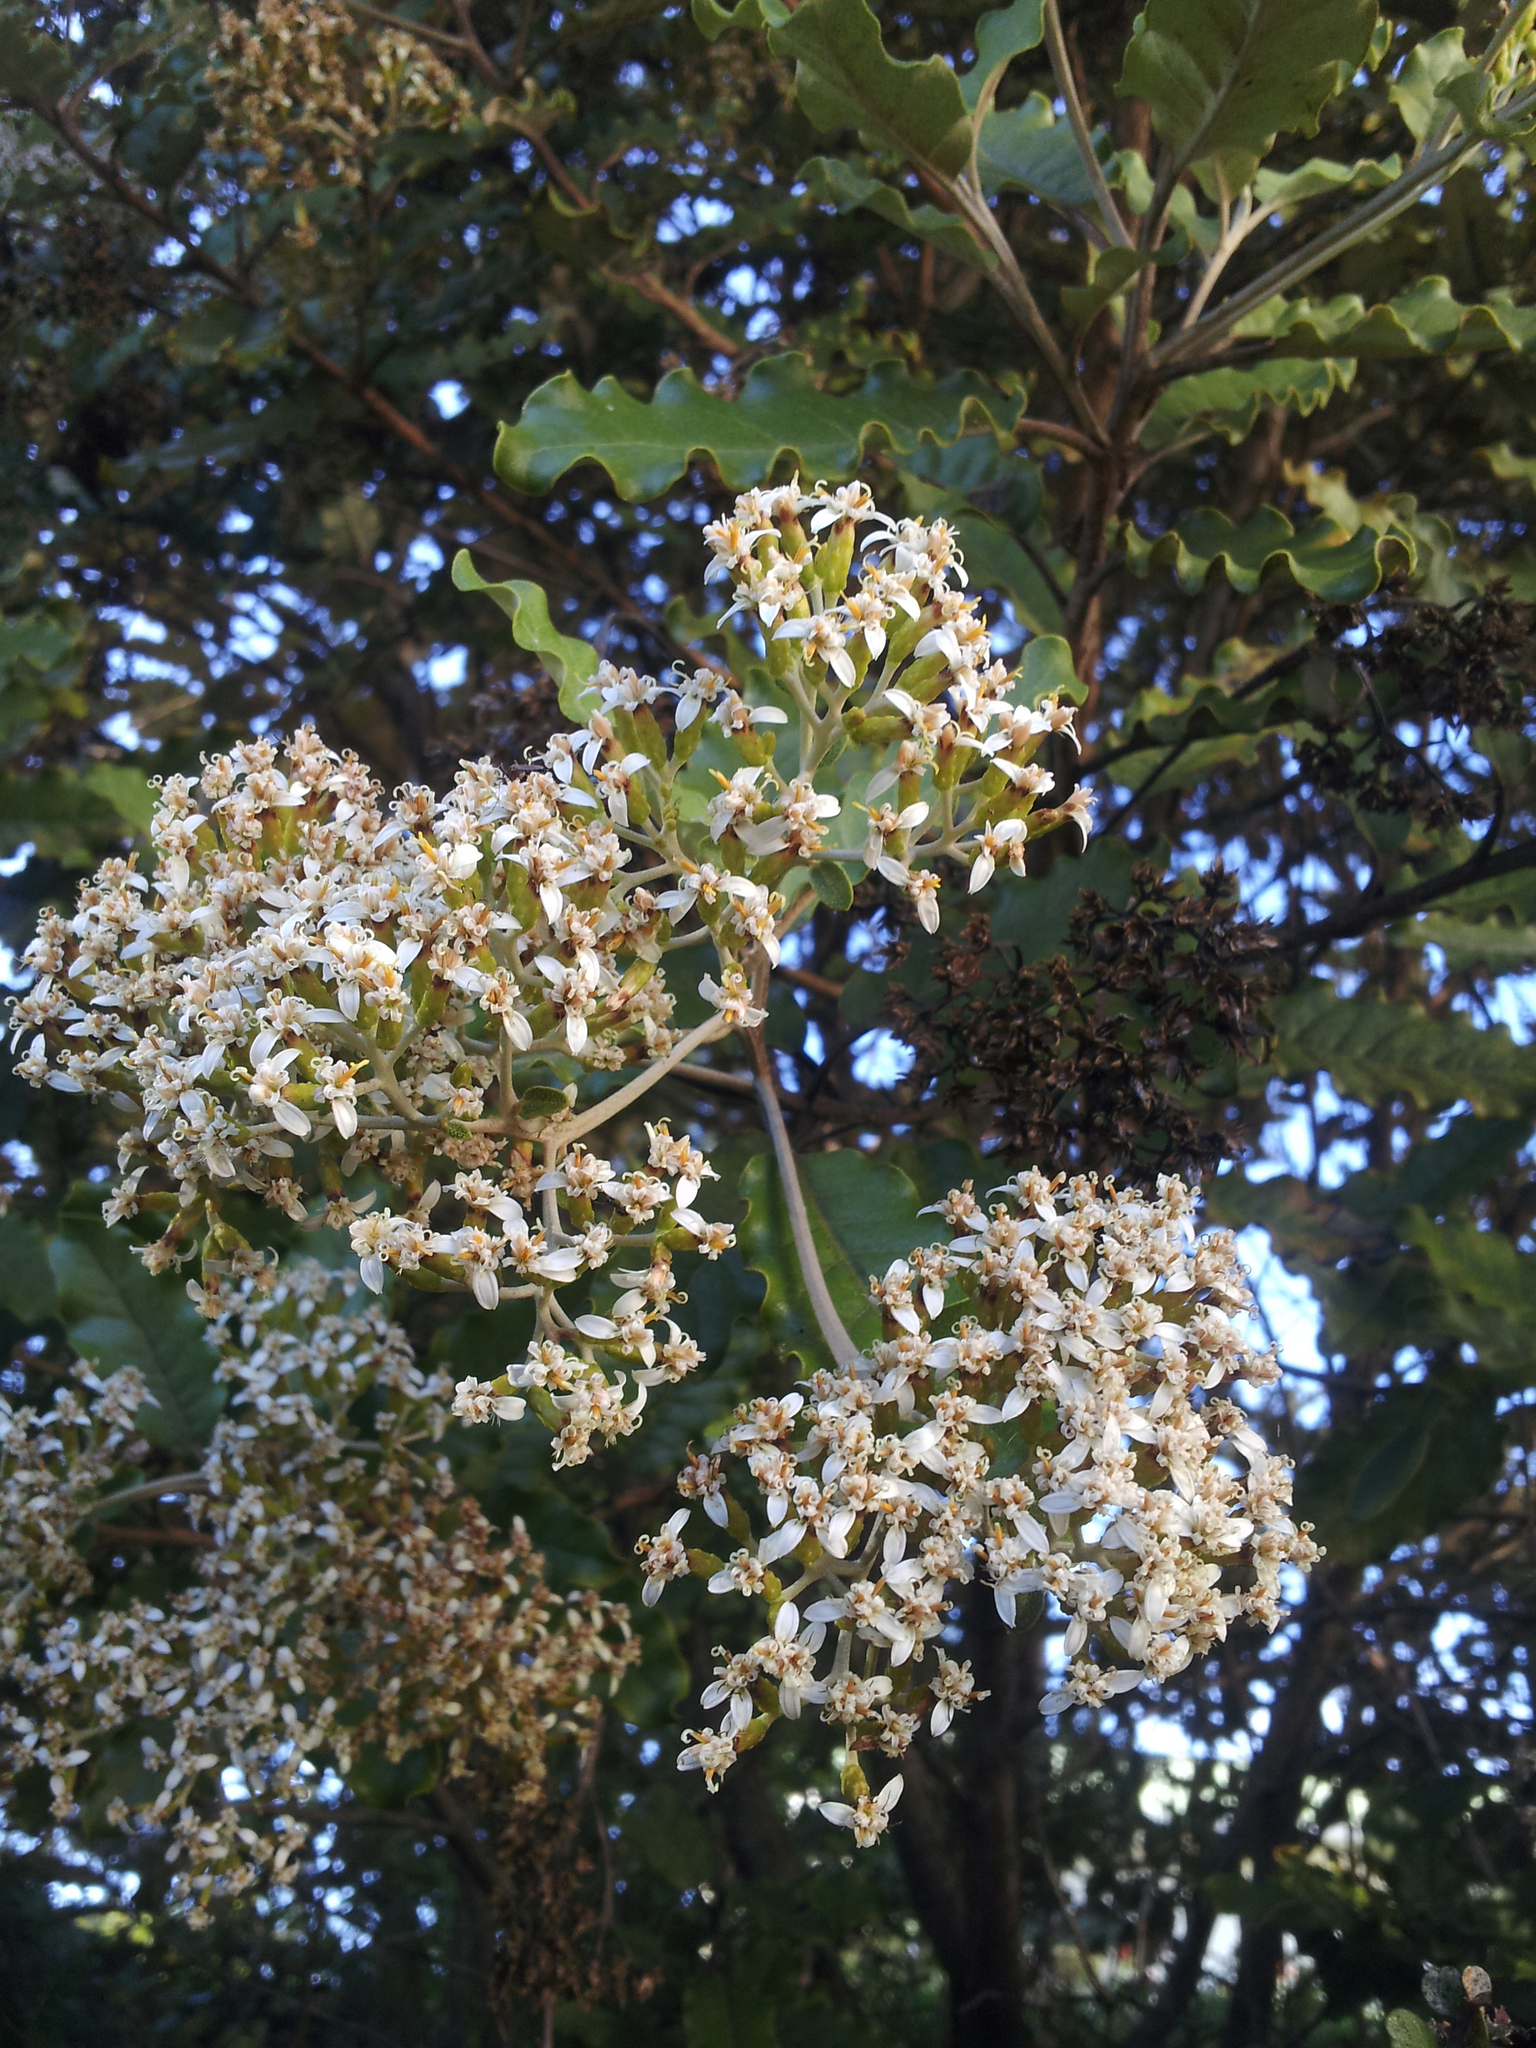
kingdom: Plantae
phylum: Tracheophyta
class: Magnoliopsida
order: Asterales
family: Asteraceae
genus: Olearia
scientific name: Olearia angulata
